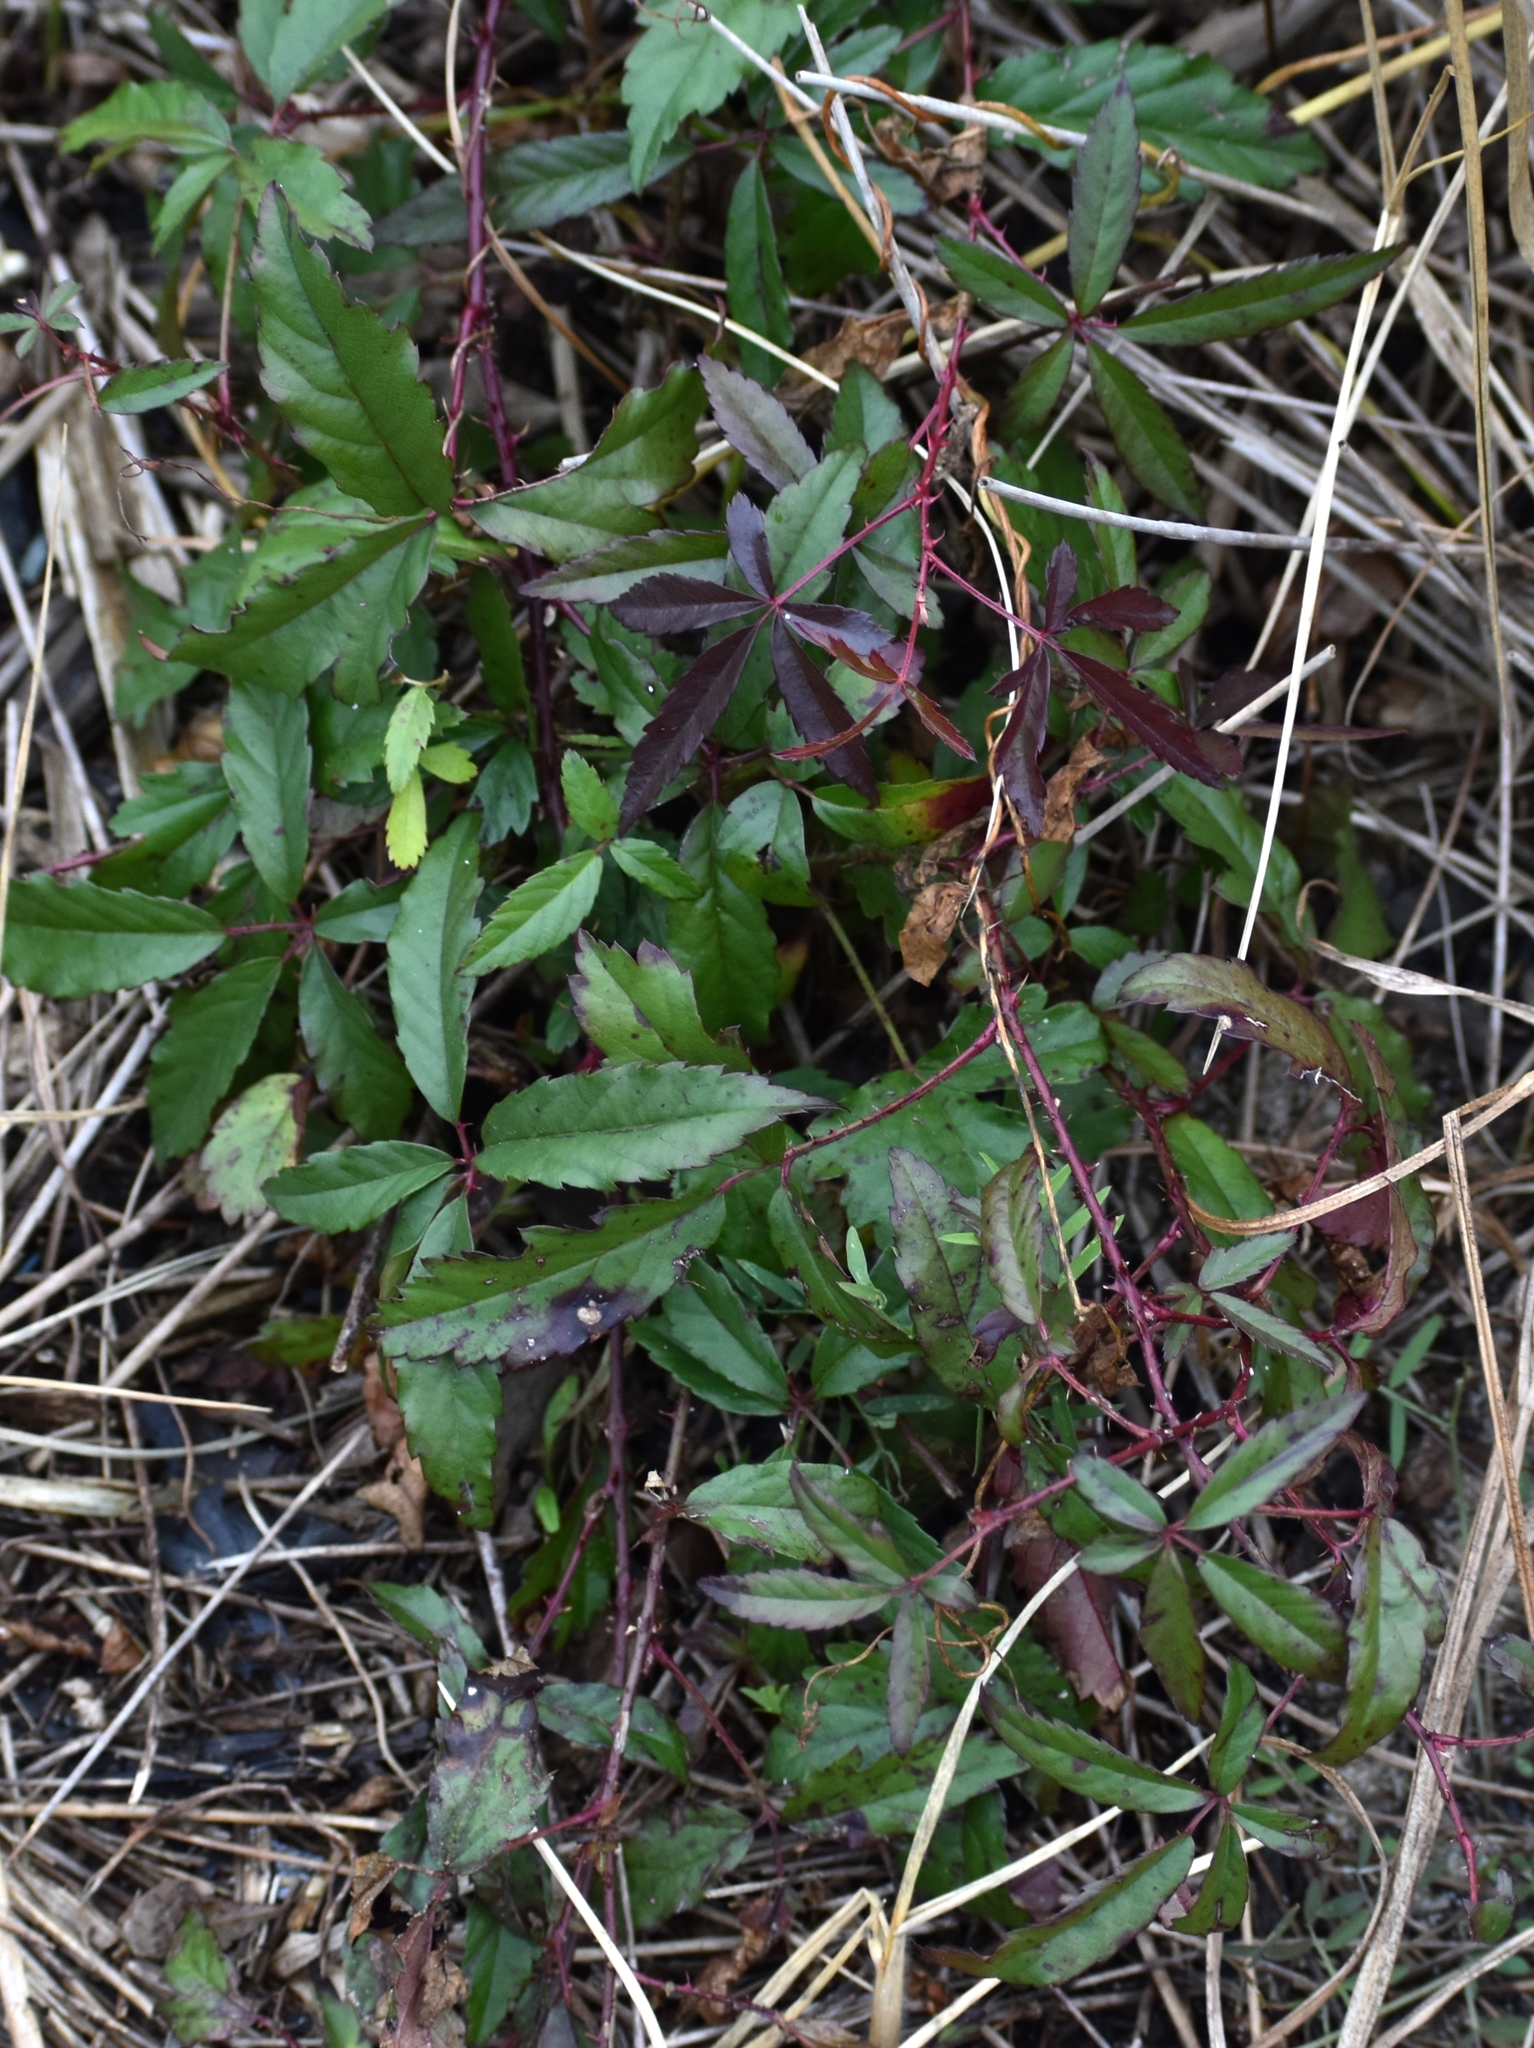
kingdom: Plantae
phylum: Tracheophyta
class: Magnoliopsida
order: Rosales
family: Rosaceae
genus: Rubus
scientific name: Rubus trivialis
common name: Southern dewberry
